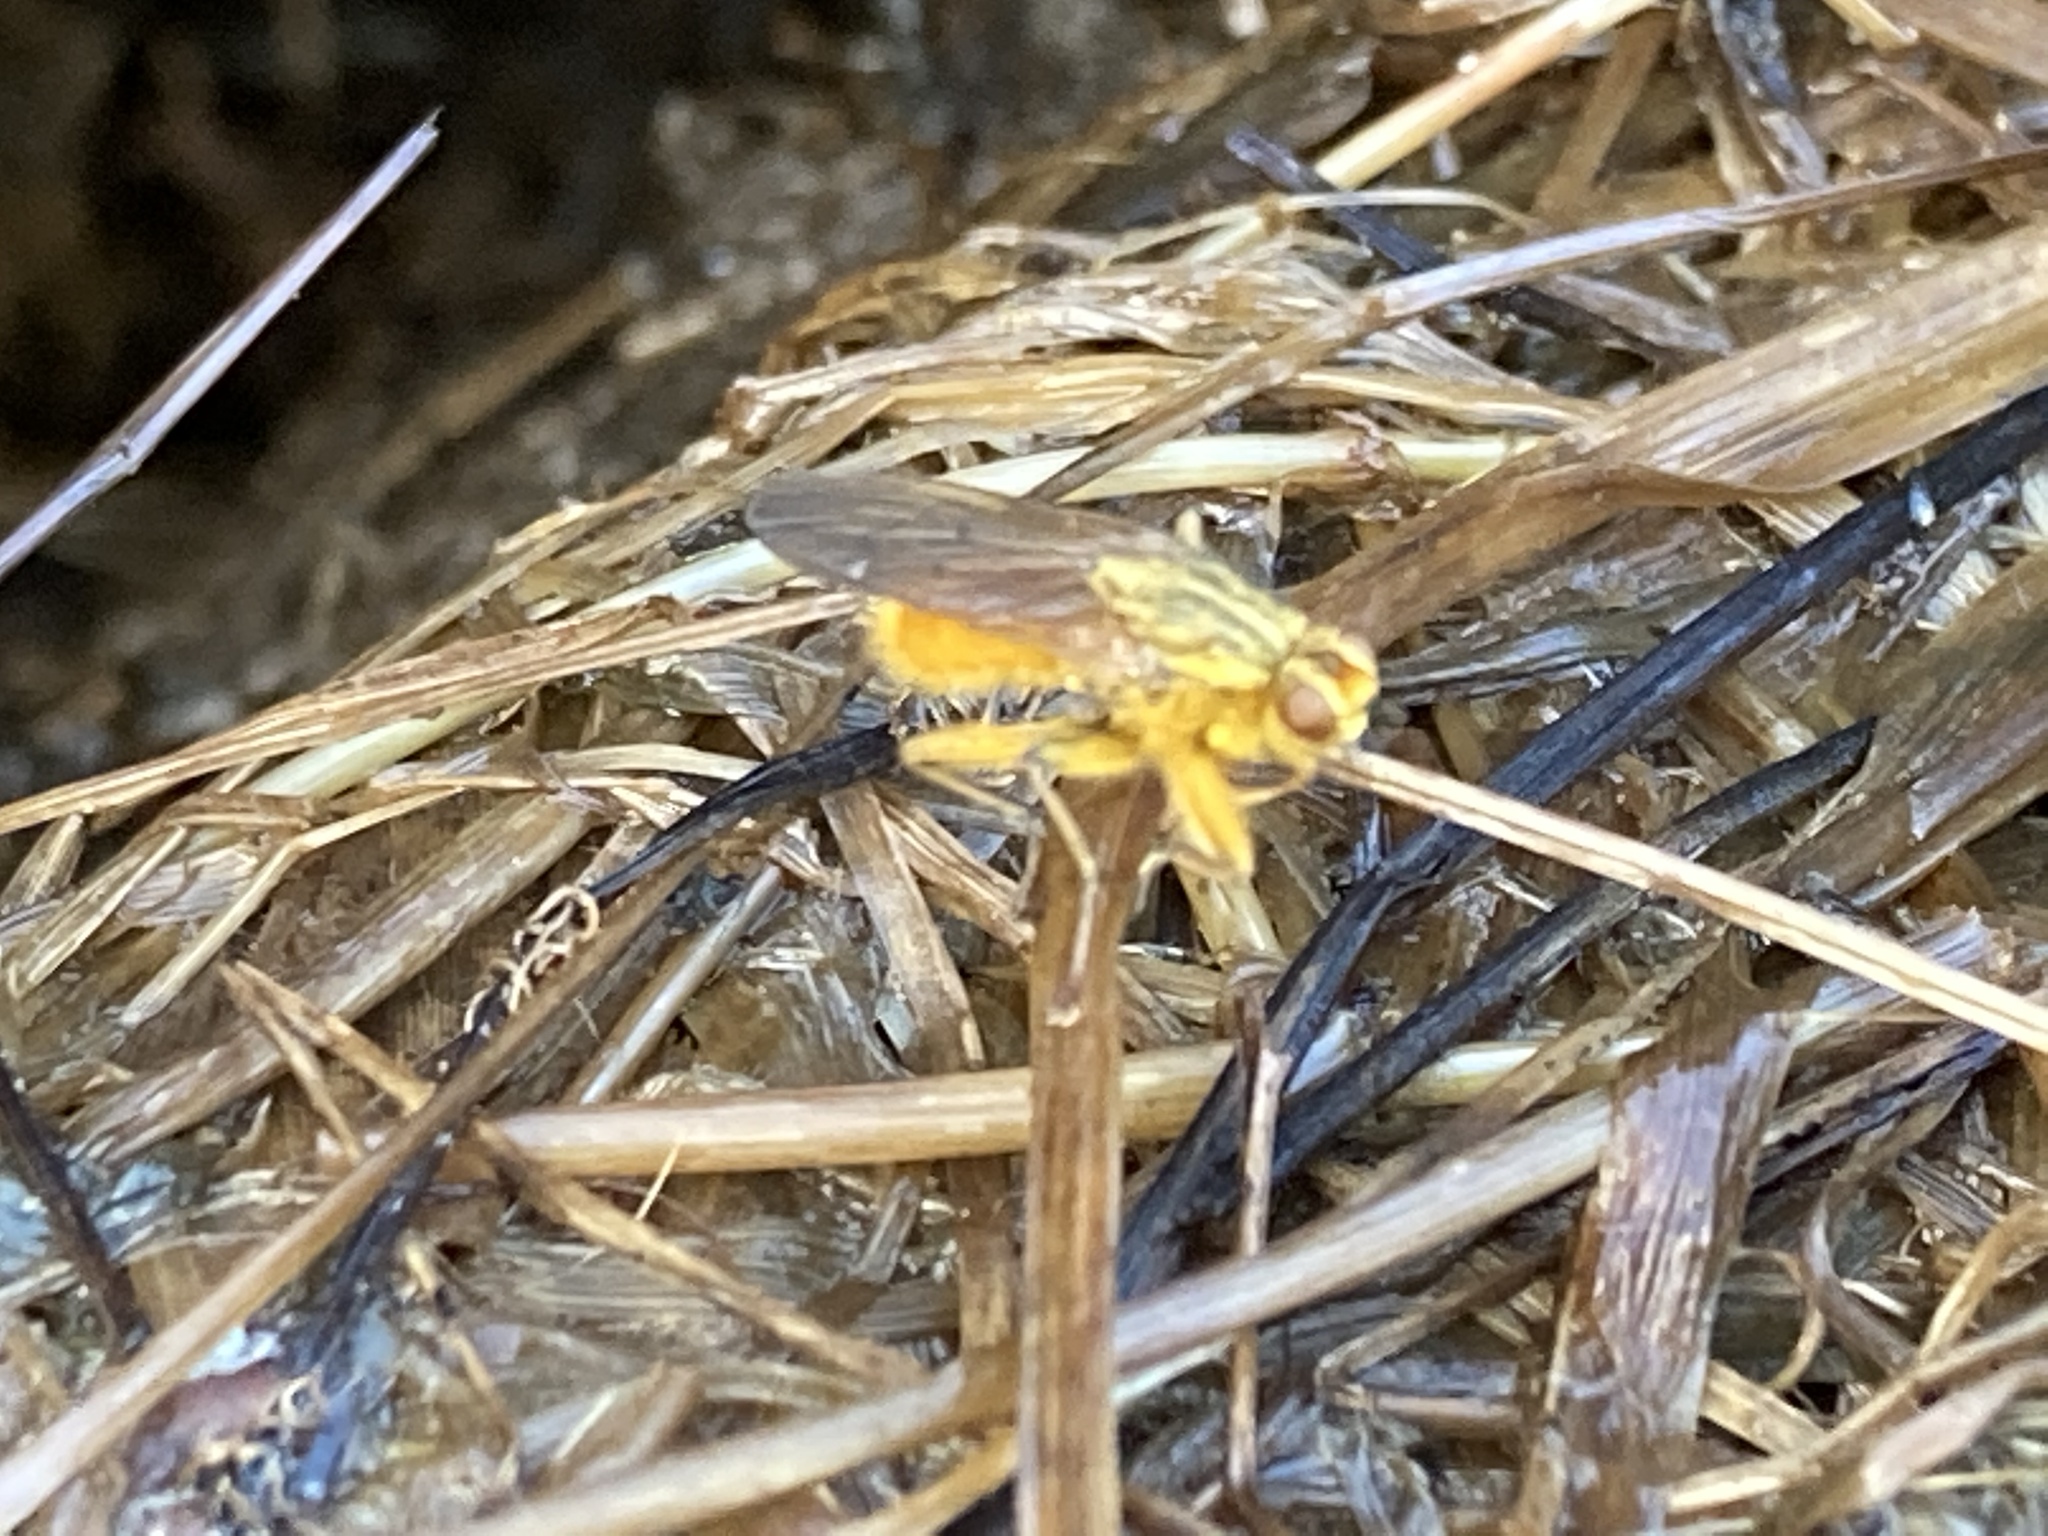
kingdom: Animalia
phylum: Arthropoda
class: Insecta
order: Diptera
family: Scathophagidae
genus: Scathophaga
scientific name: Scathophaga stercoraria
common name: Yellow dung fly
